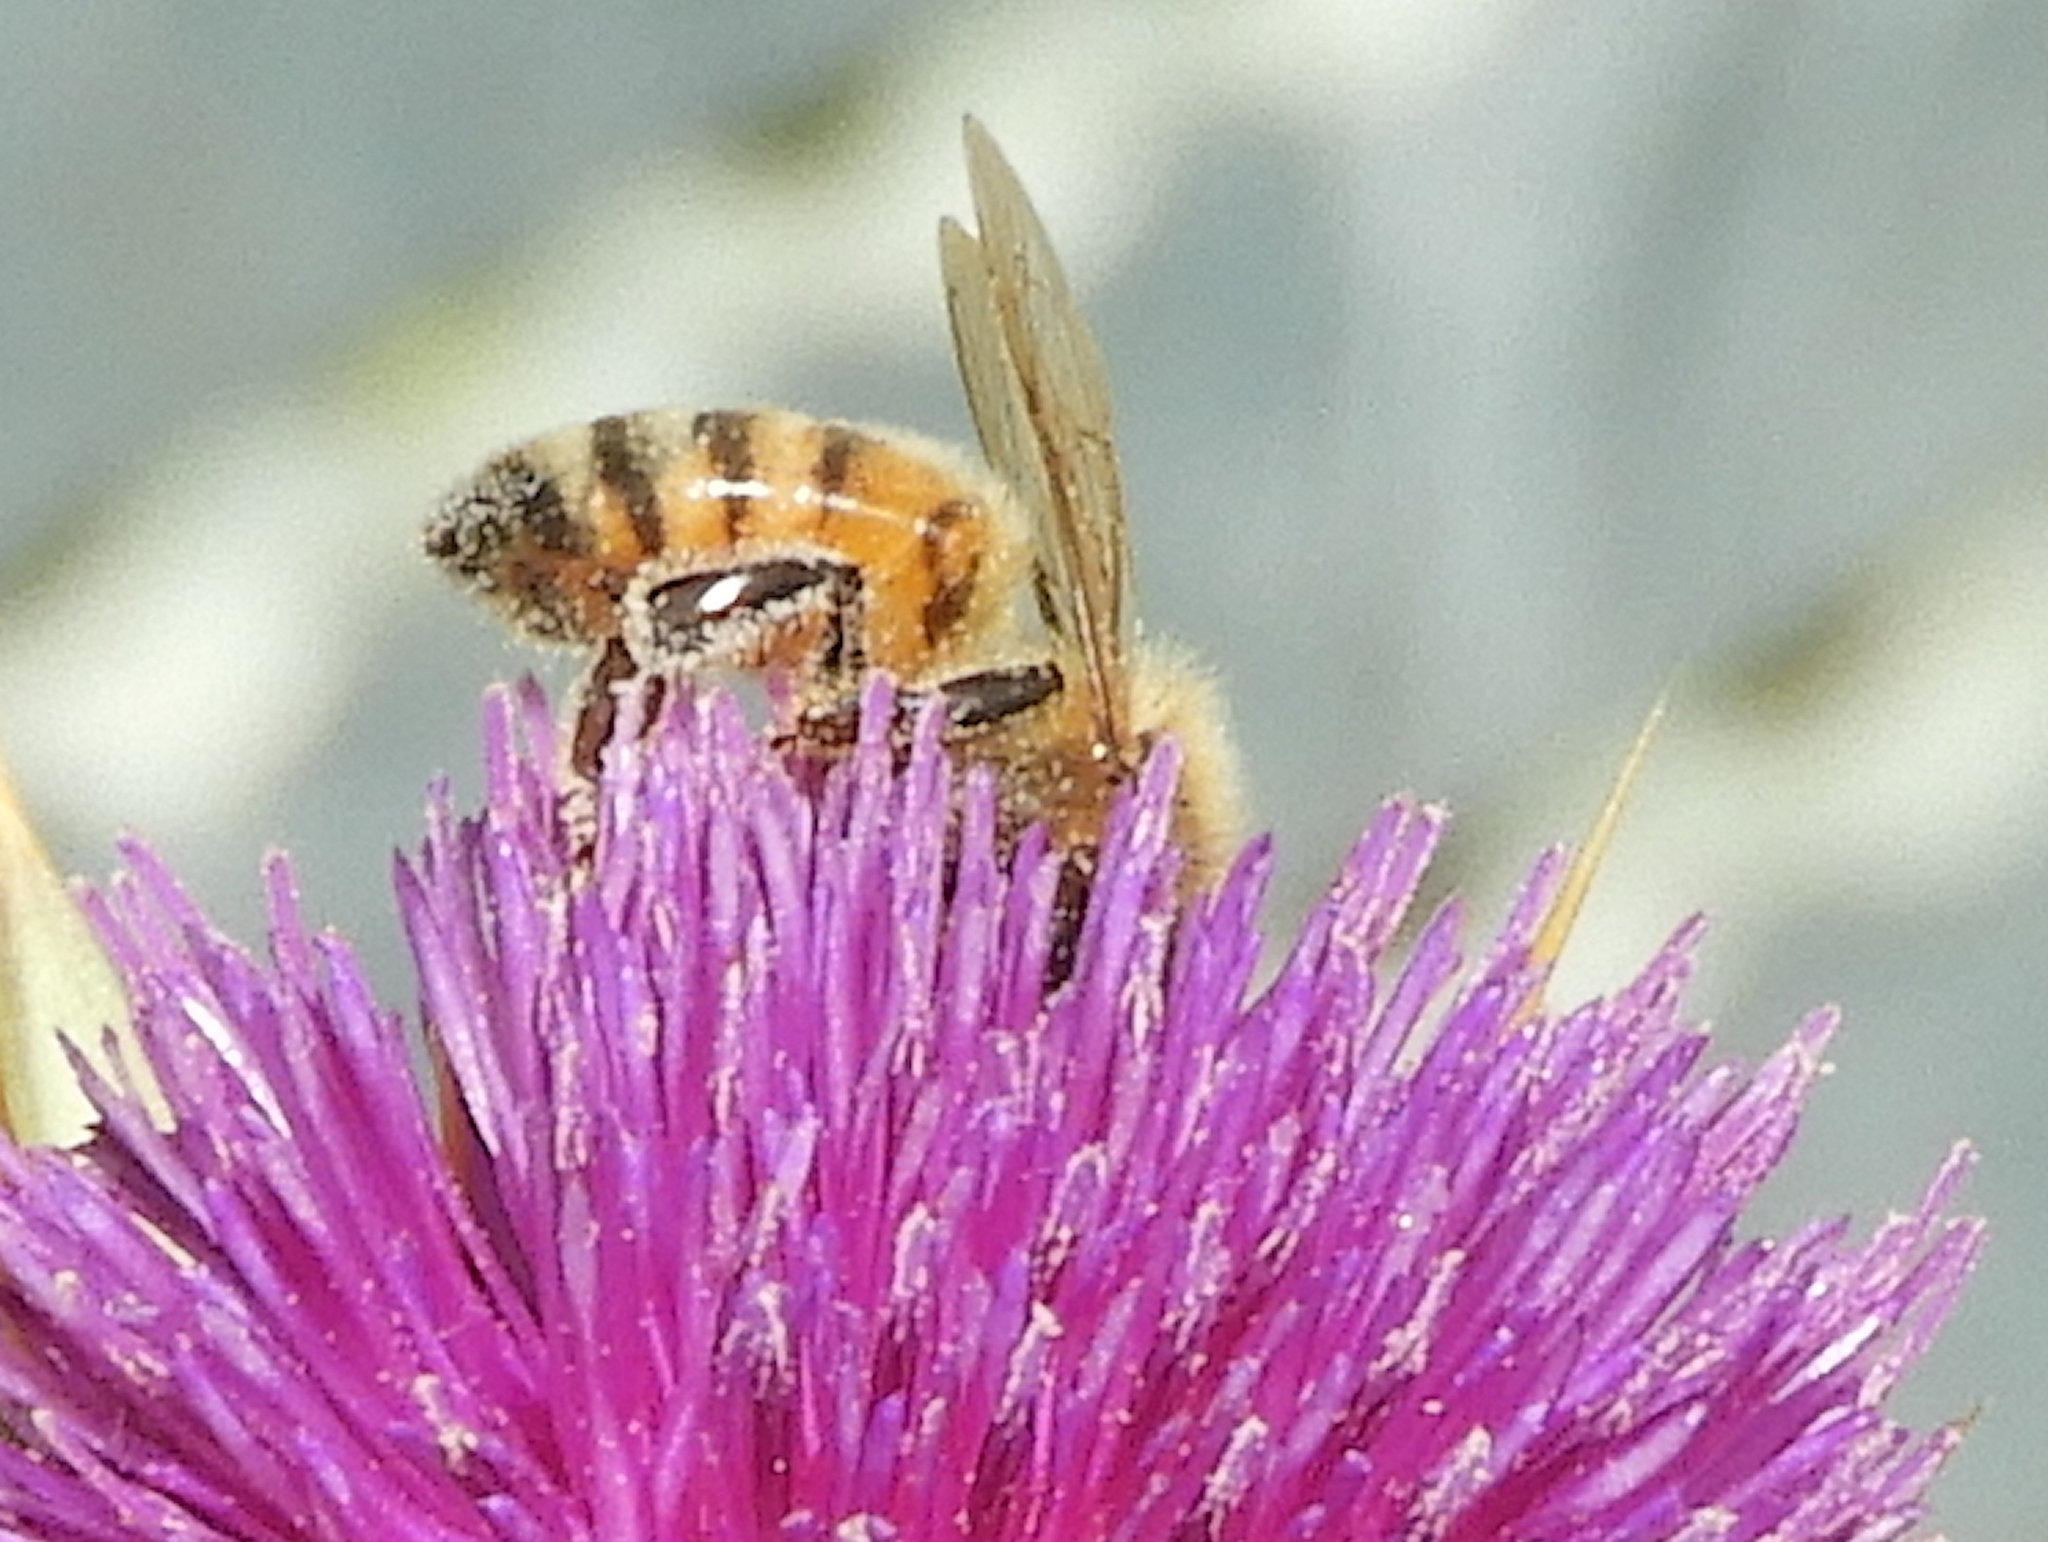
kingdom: Animalia
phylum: Arthropoda
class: Insecta
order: Hymenoptera
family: Apidae
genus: Apis
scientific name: Apis mellifera
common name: Honey bee
